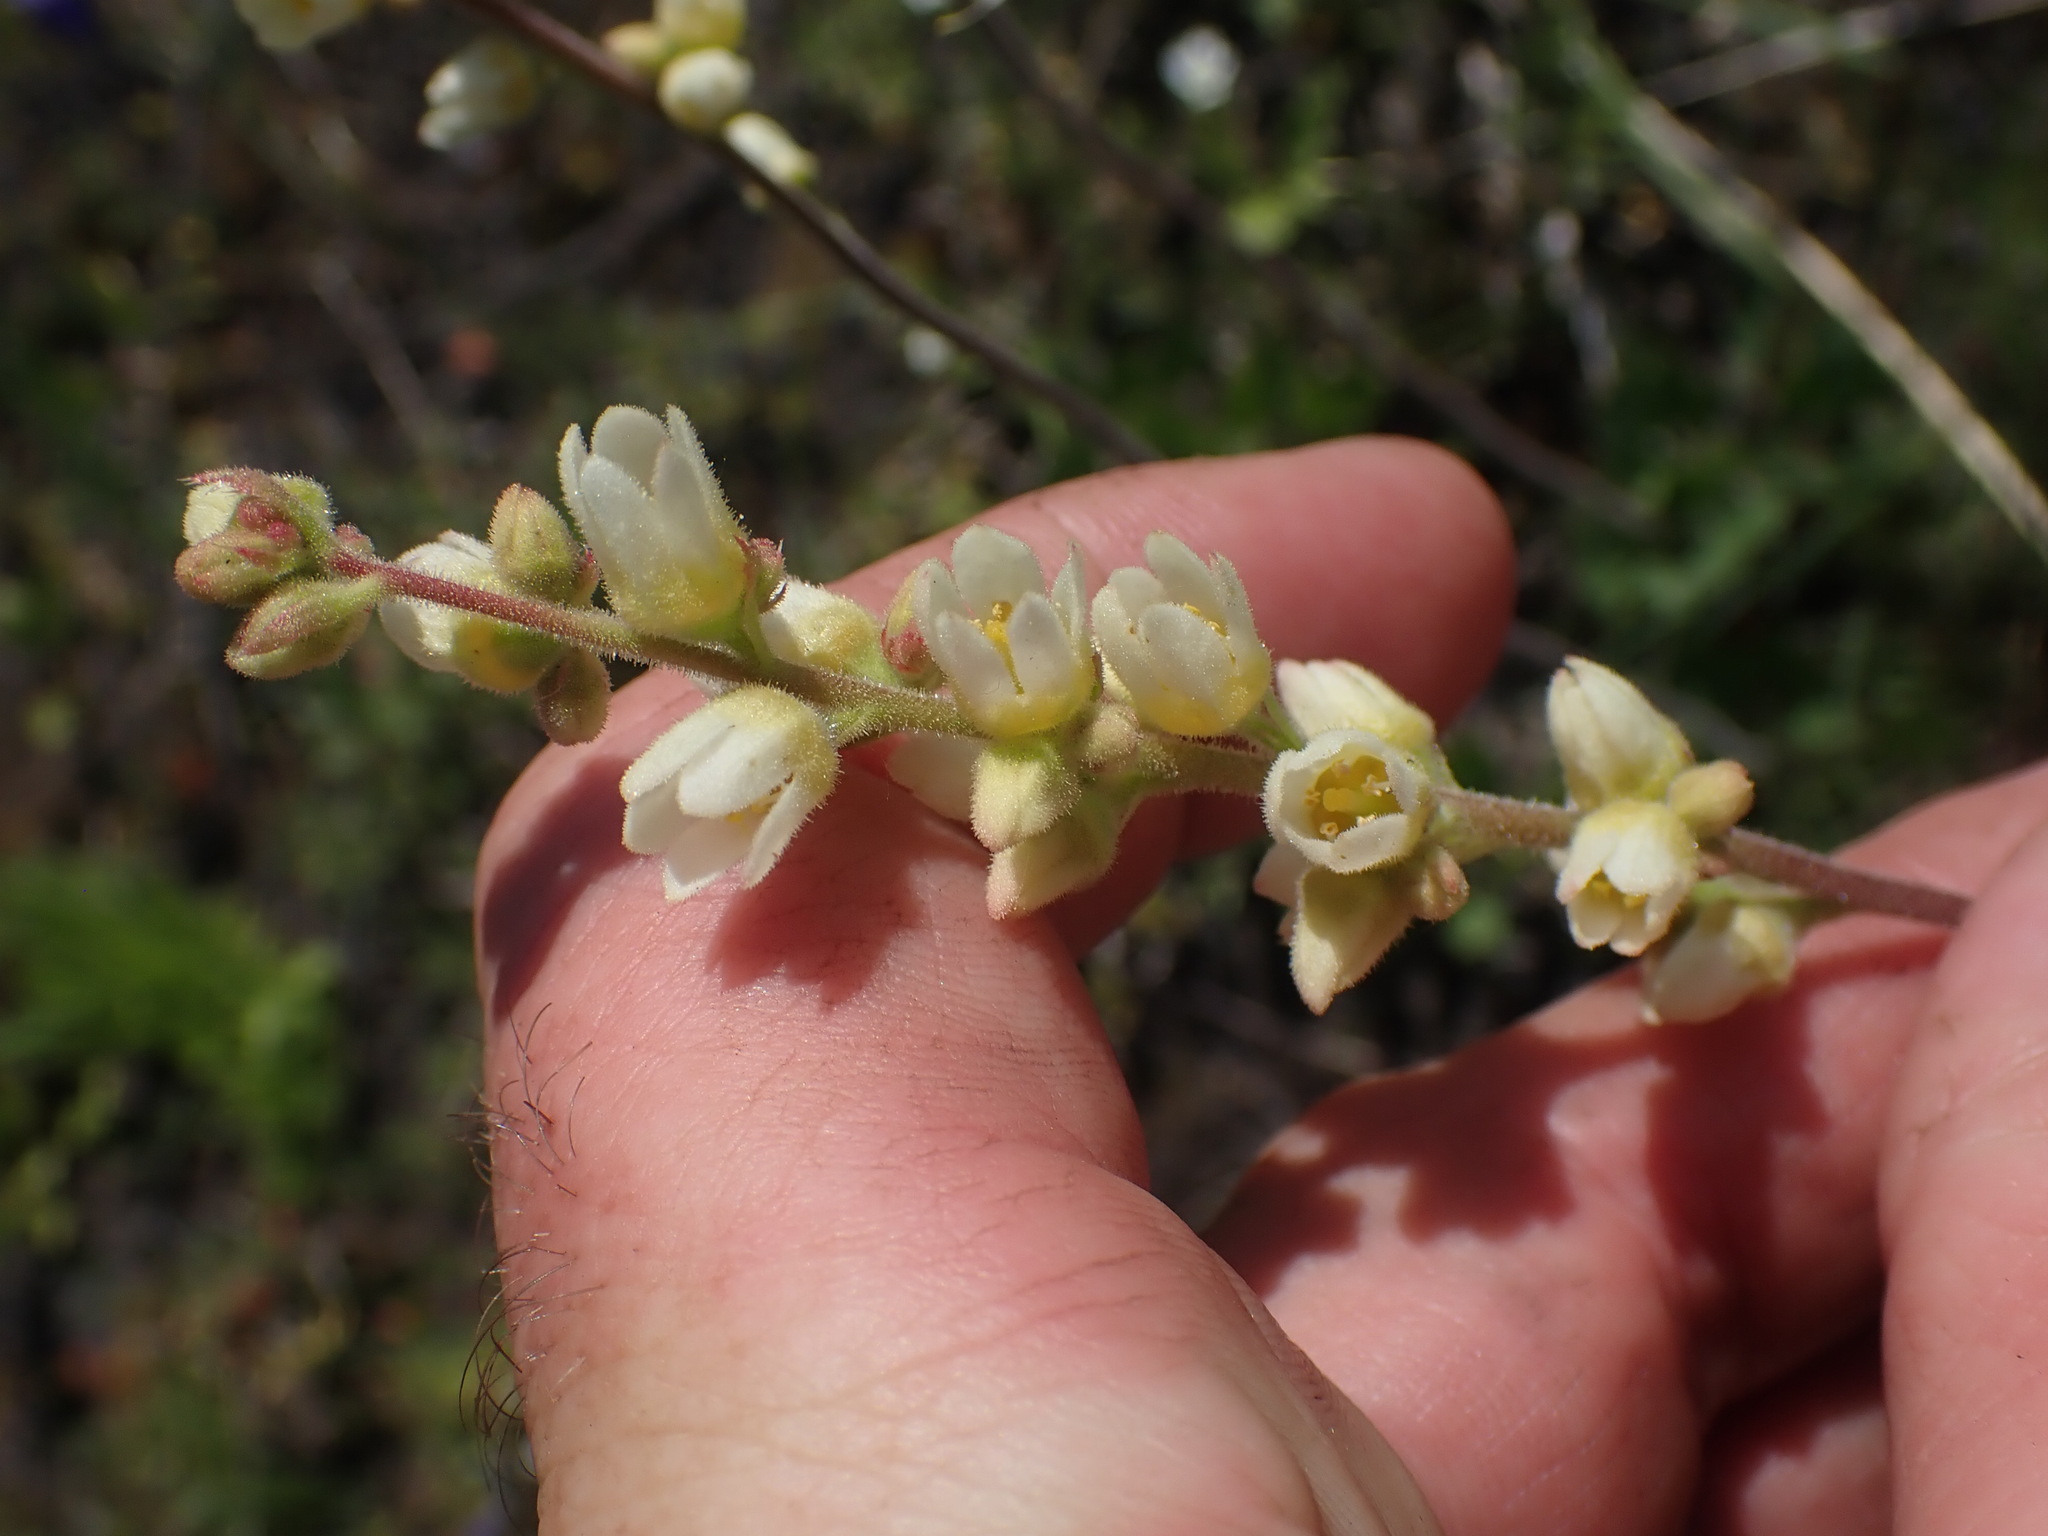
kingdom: Plantae
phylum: Tracheophyta
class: Magnoliopsida
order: Saxifragales
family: Saxifragaceae
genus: Heuchera
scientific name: Heuchera cylindrica
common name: Mat alumroot
